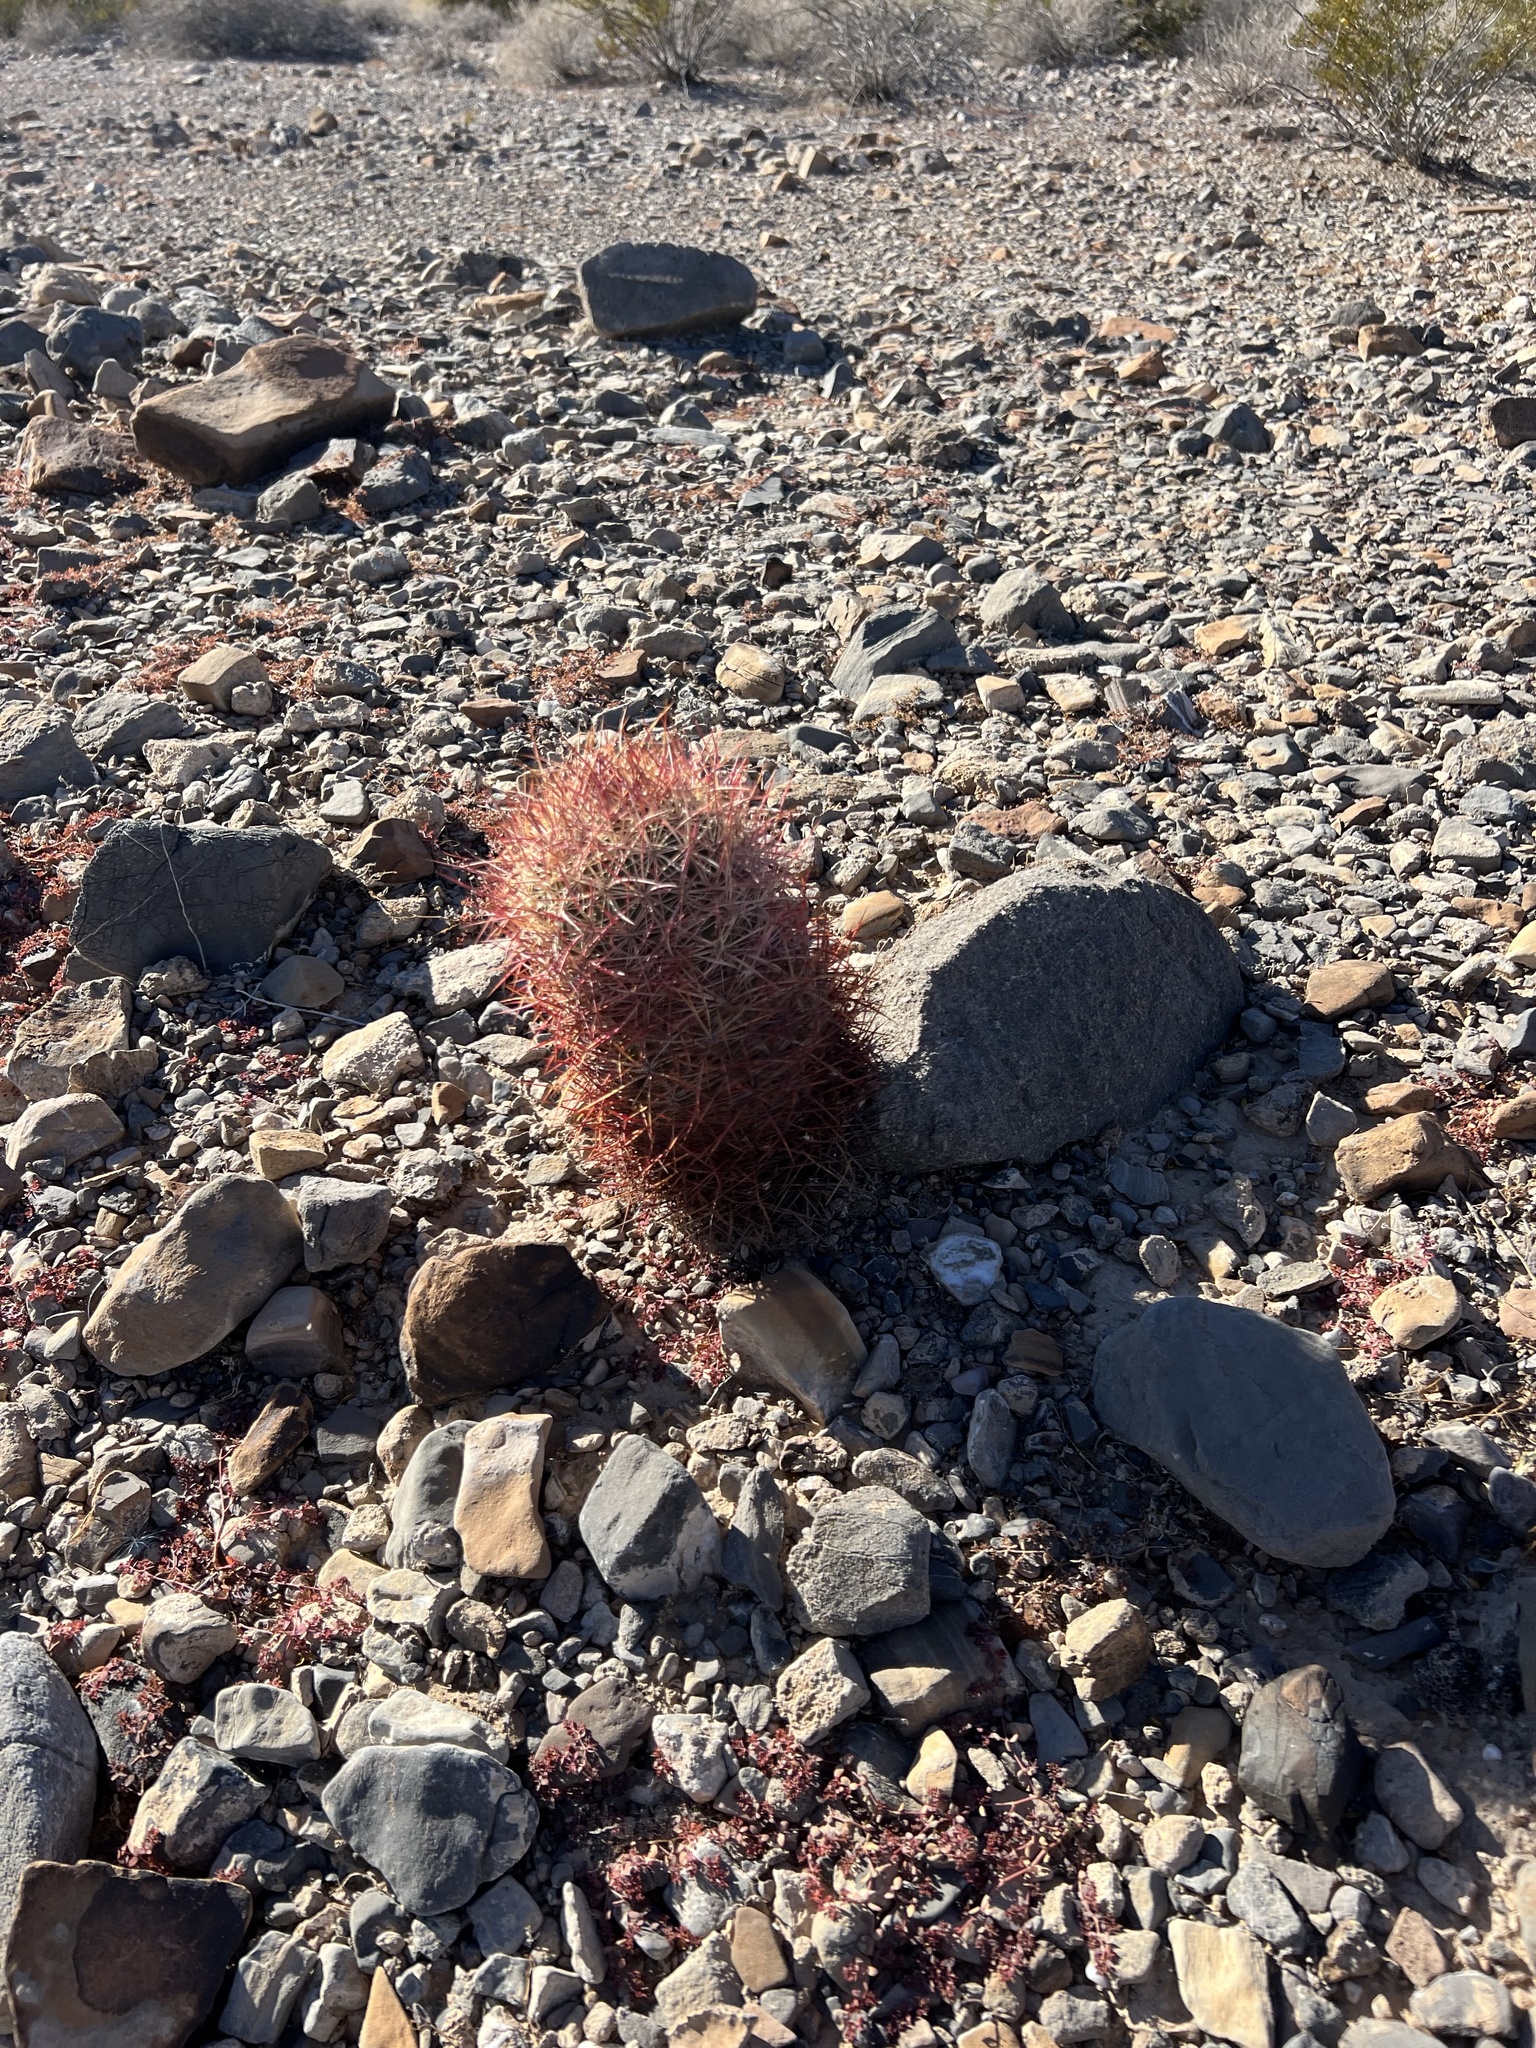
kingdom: Plantae
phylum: Tracheophyta
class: Magnoliopsida
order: Caryophyllales
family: Cactaceae
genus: Sclerocactus
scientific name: Sclerocactus johnsonii
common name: Eight-spine fishhook cactus
